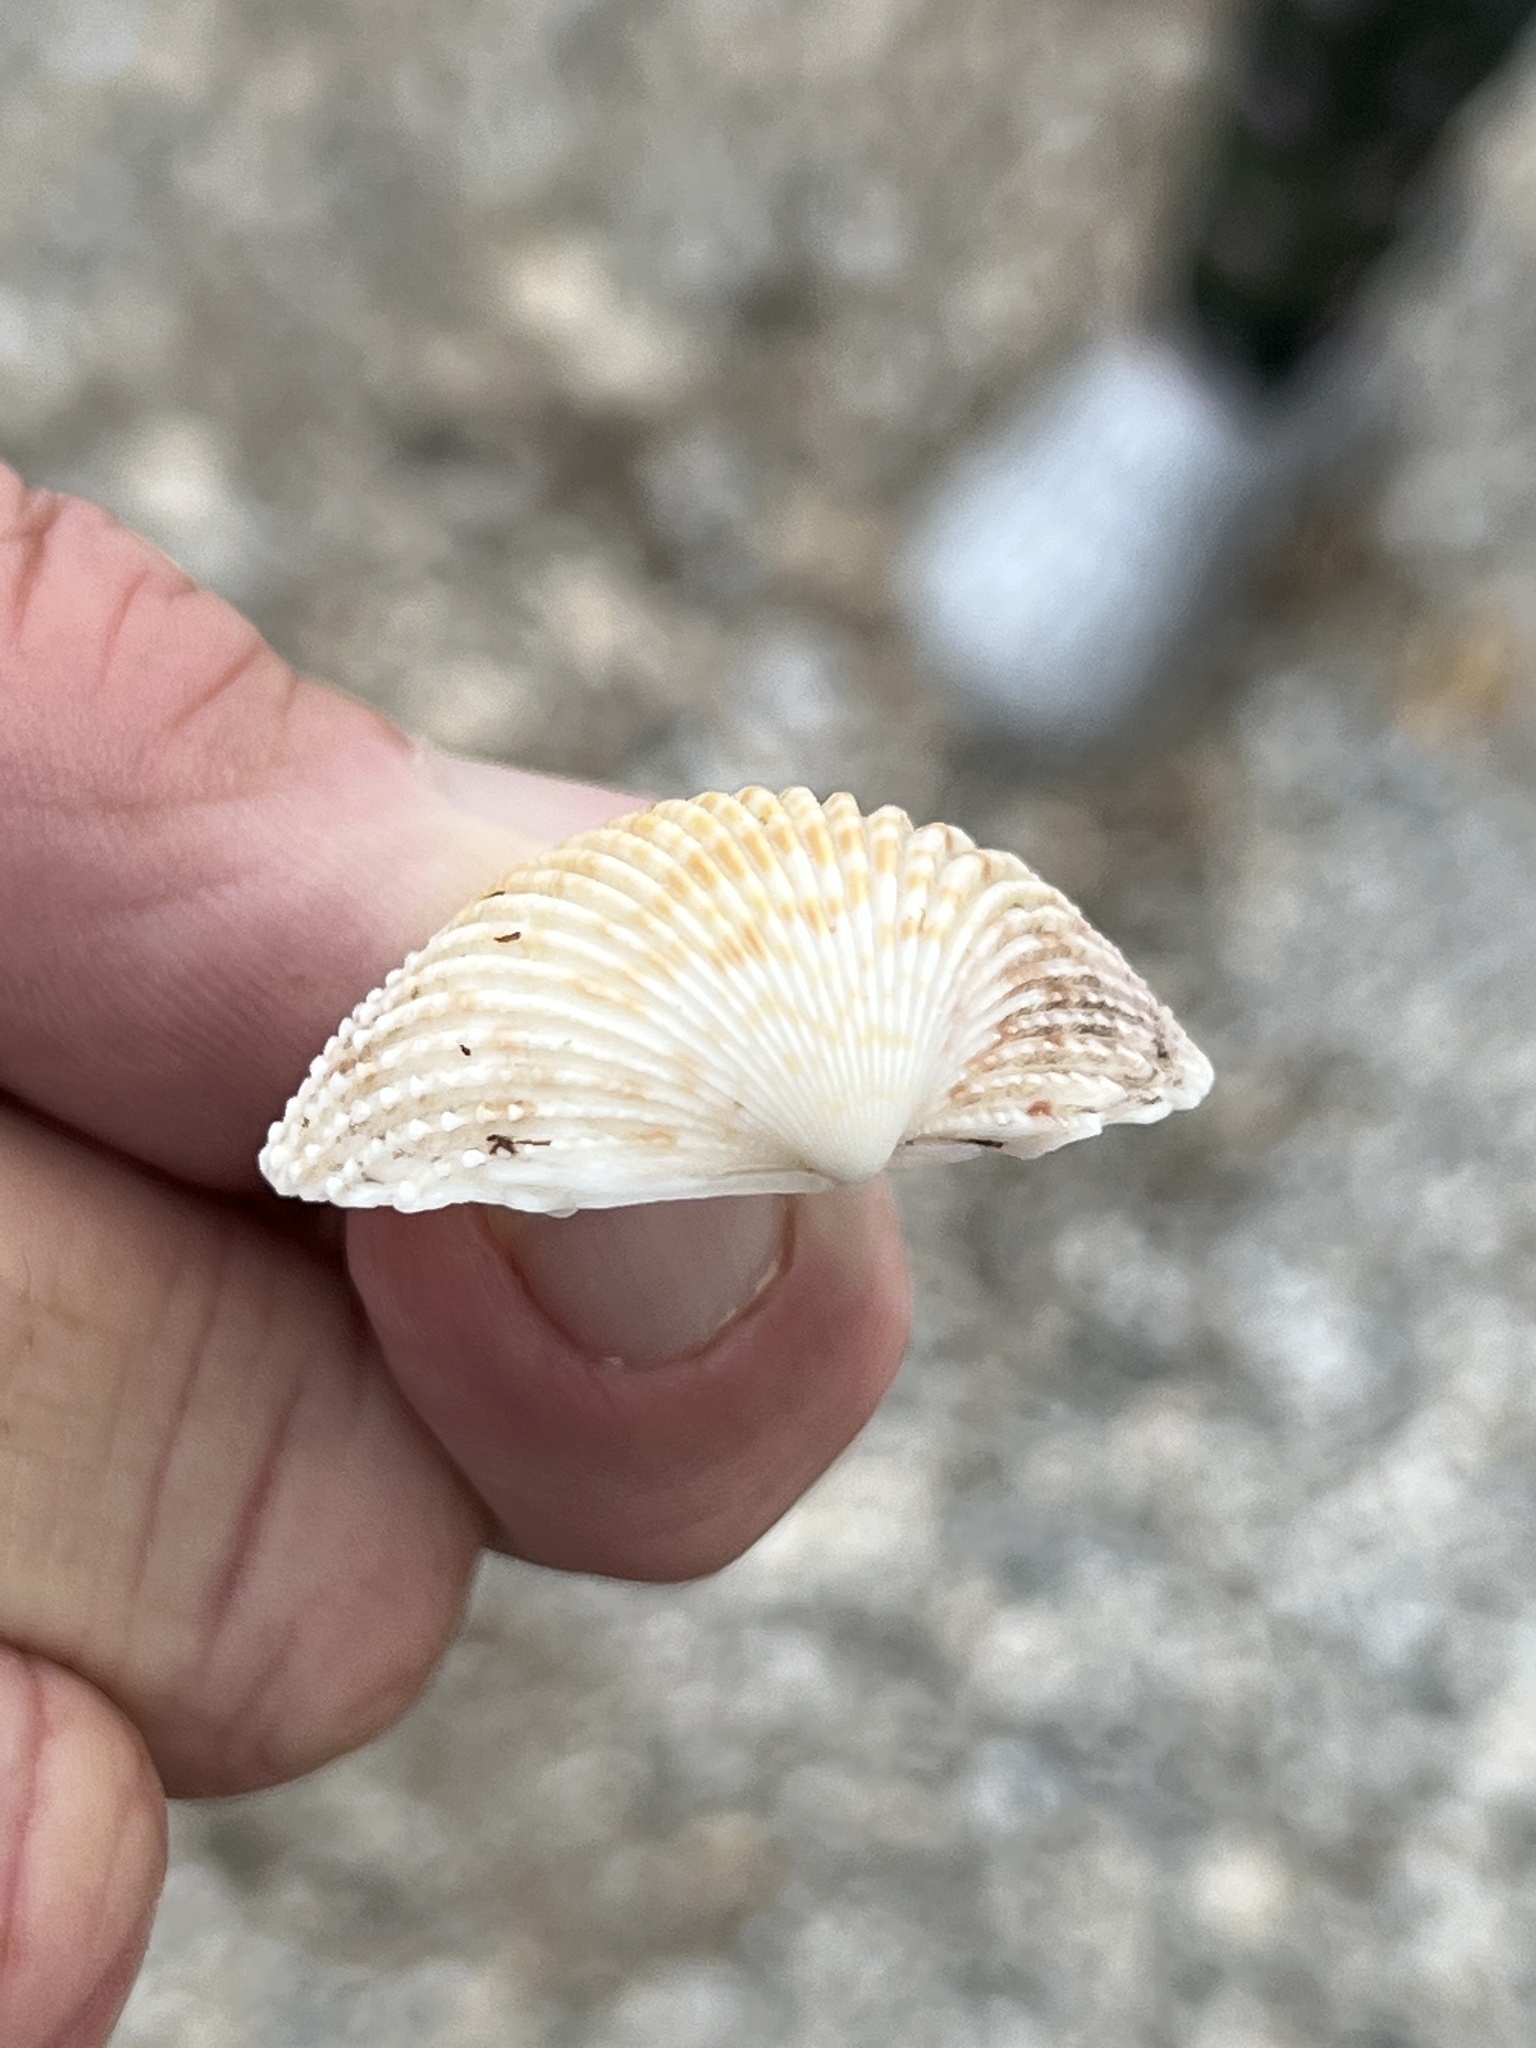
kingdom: Animalia
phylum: Mollusca
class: Bivalvia
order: Cardiida
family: Cardiidae
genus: Dallocardia
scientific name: Dallocardia muricata
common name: Yellow pricklycockle
